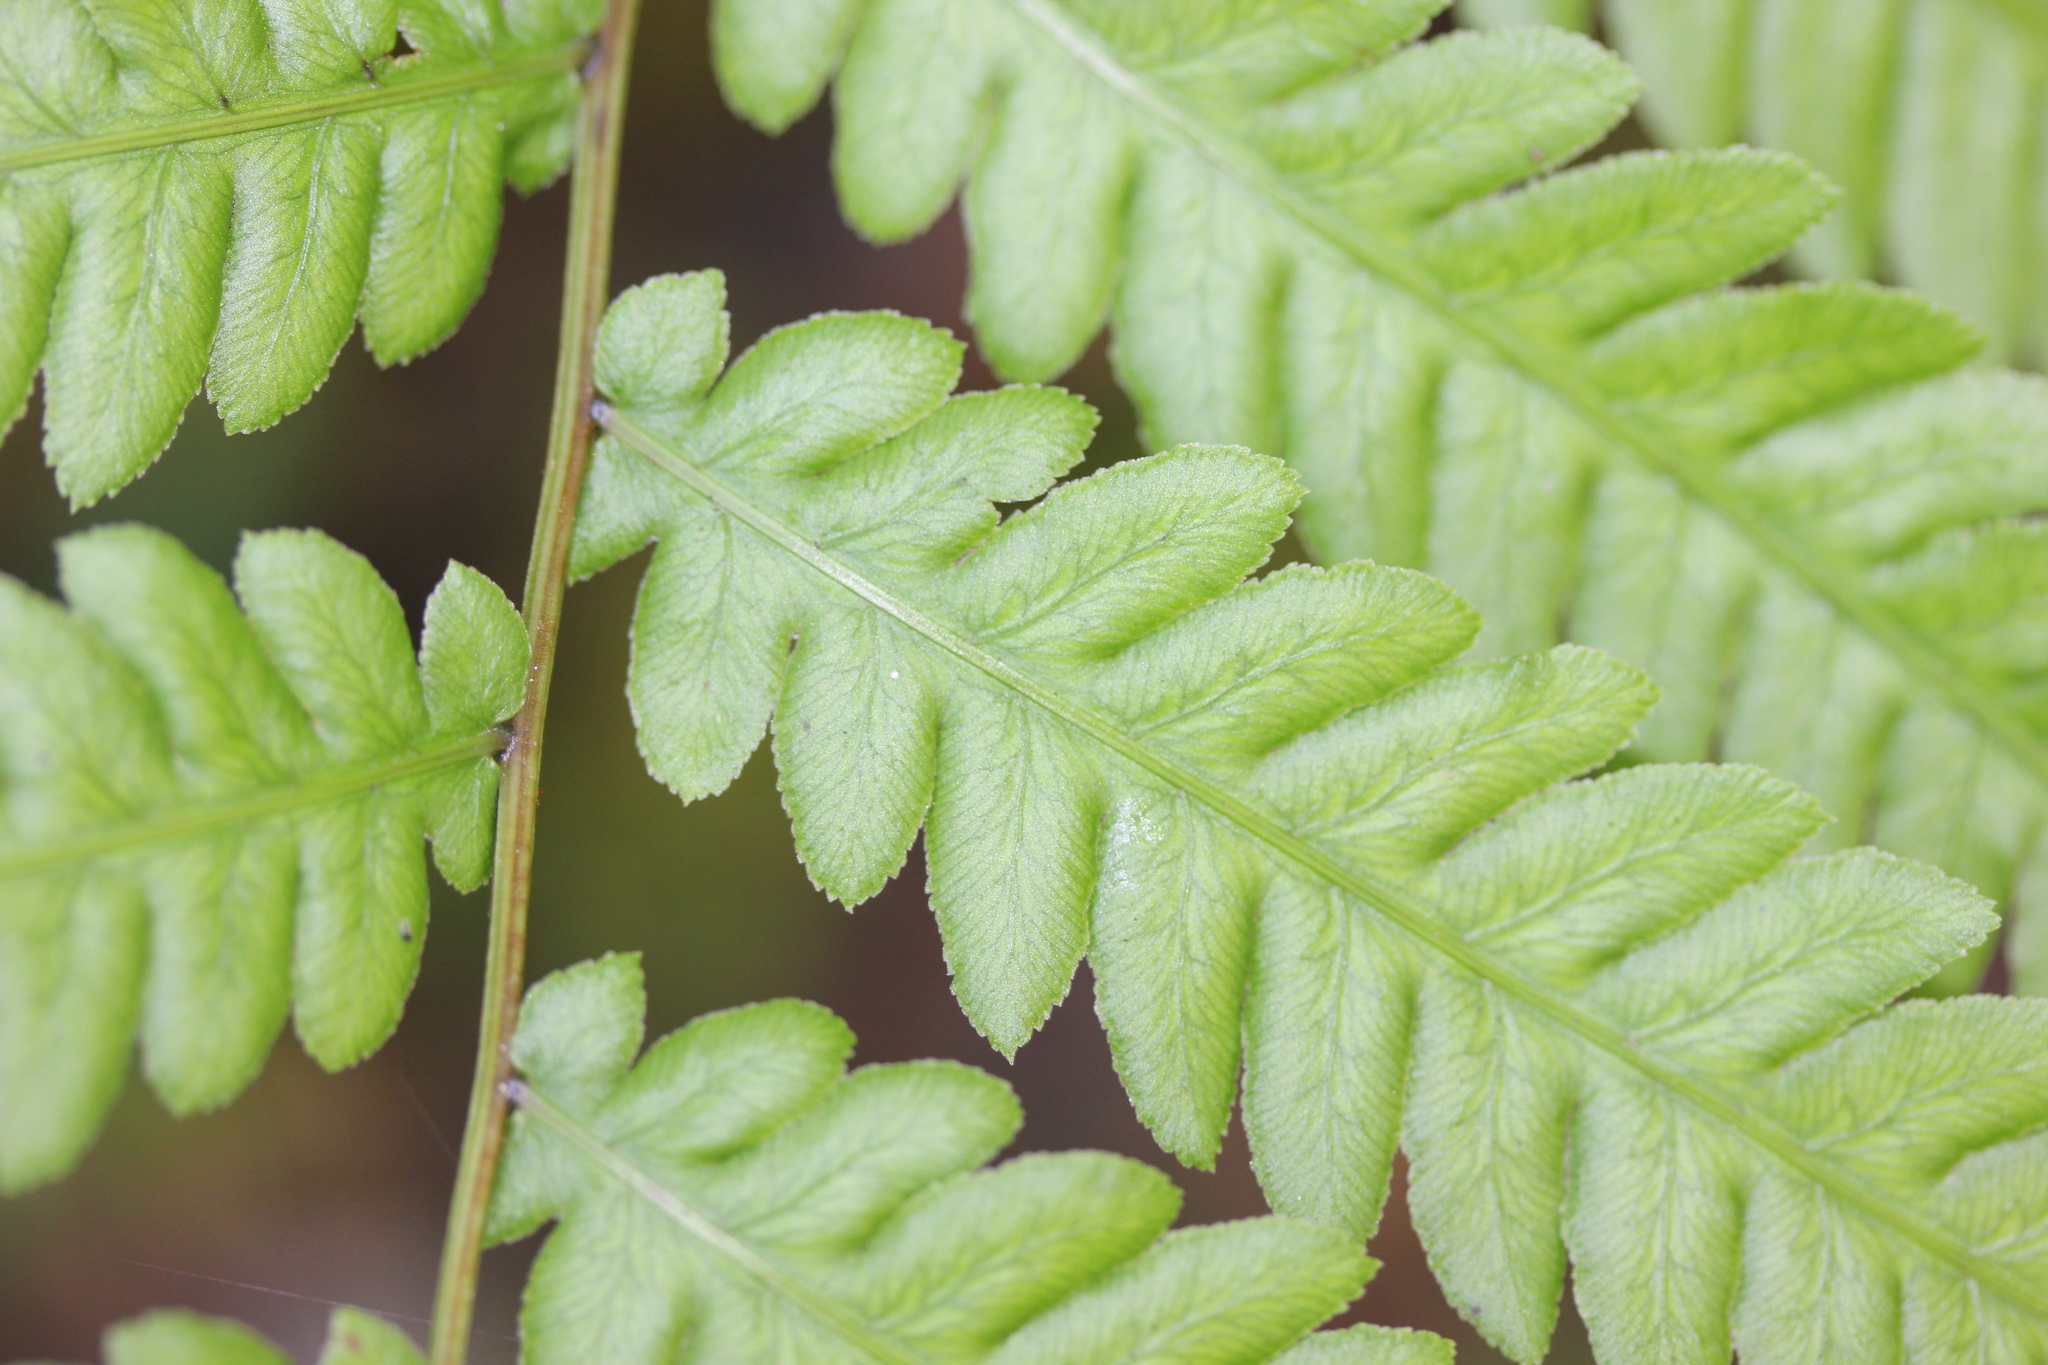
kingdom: Plantae
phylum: Tracheophyta
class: Polypodiopsida
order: Polypodiales
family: Blechnaceae
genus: Anchistea
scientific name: Anchistea virginica
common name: Virginia chain fern
